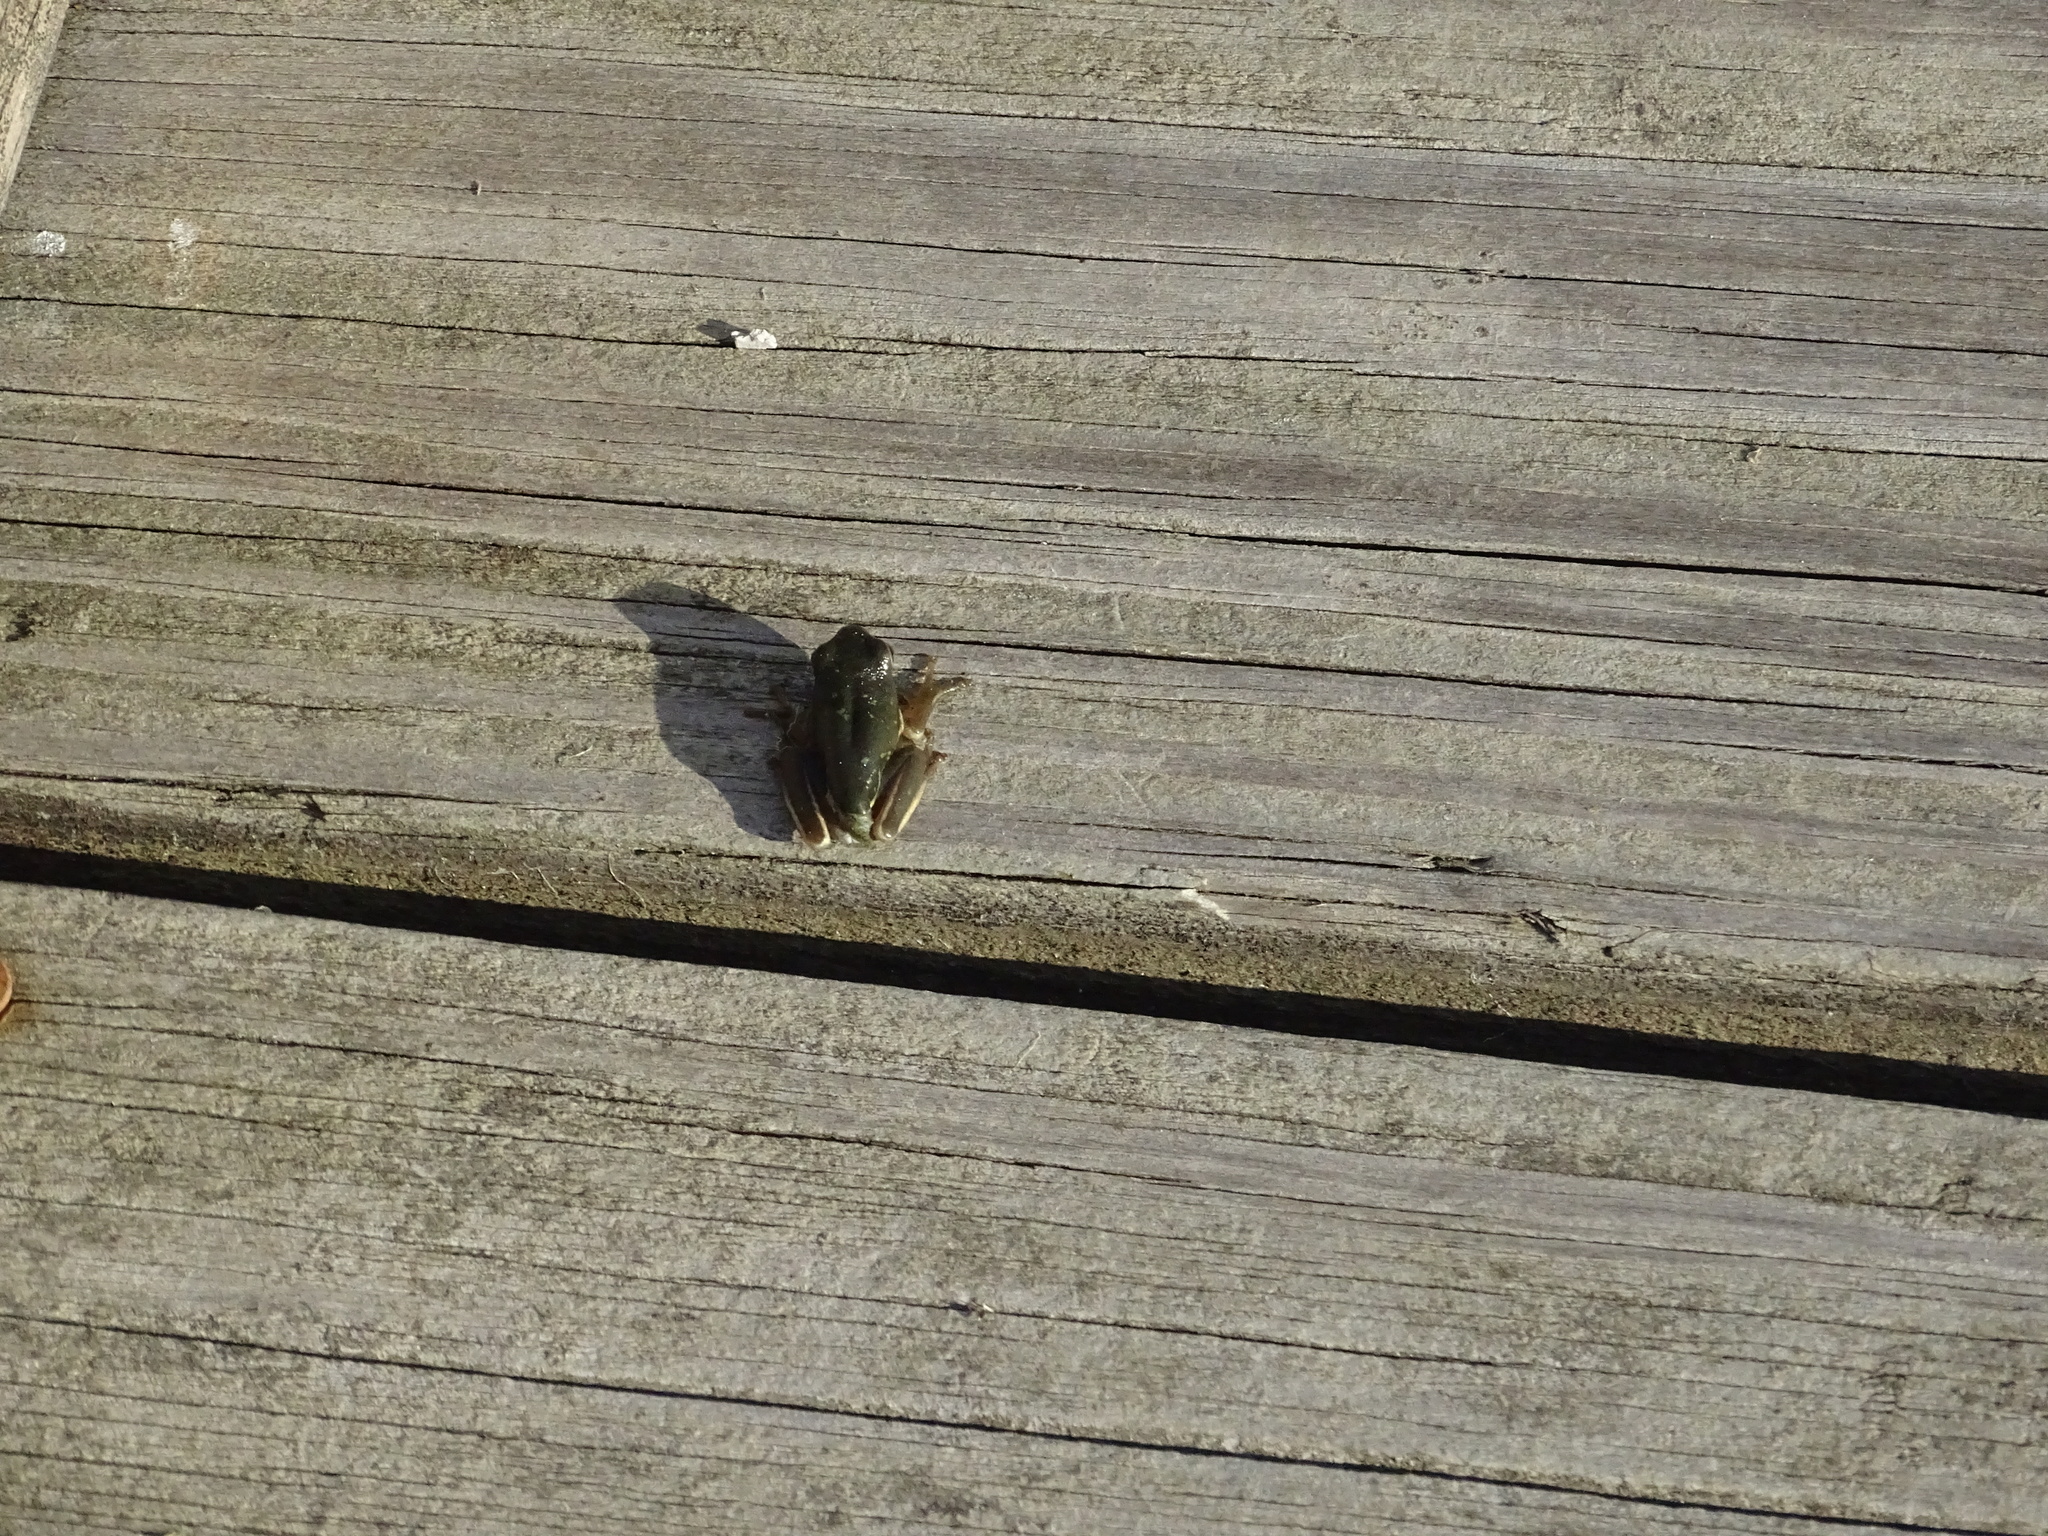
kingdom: Animalia
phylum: Chordata
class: Amphibia
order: Anura
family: Hylidae
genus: Dryophytes
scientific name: Dryophytes cinereus
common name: Green treefrog
